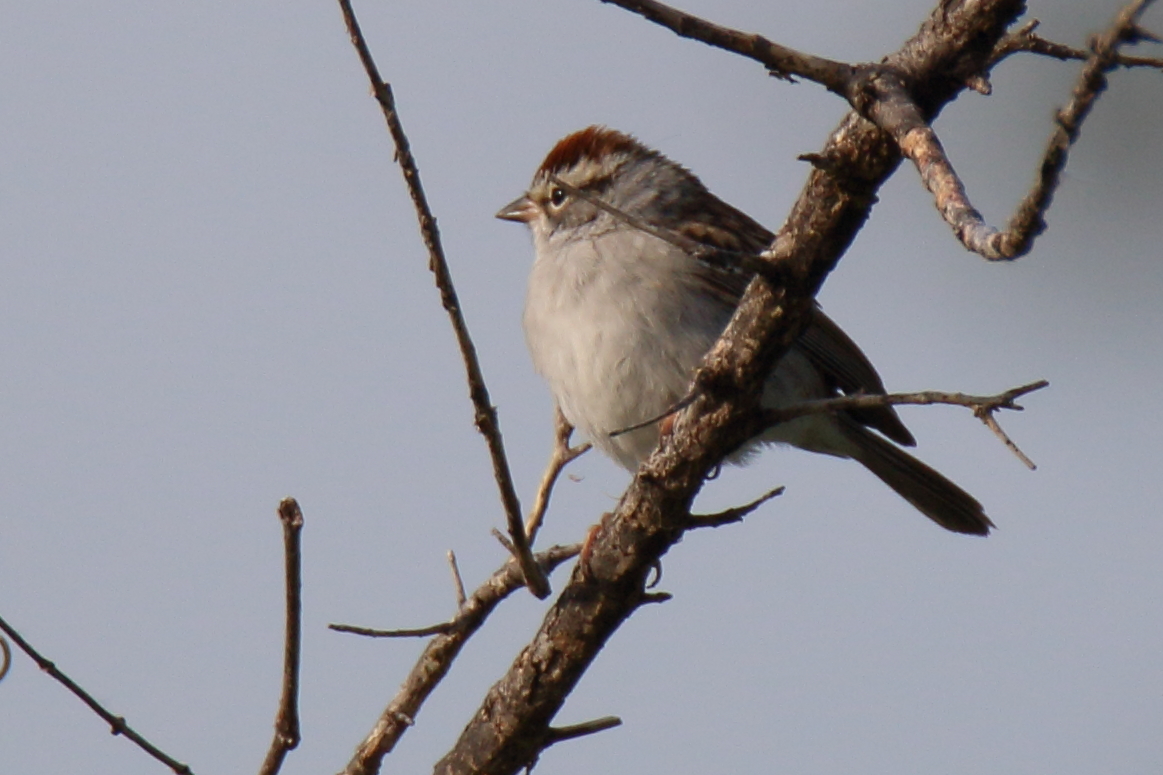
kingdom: Animalia
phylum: Chordata
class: Aves
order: Passeriformes
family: Passerellidae
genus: Spizella
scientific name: Spizella passerina
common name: Chipping sparrow
